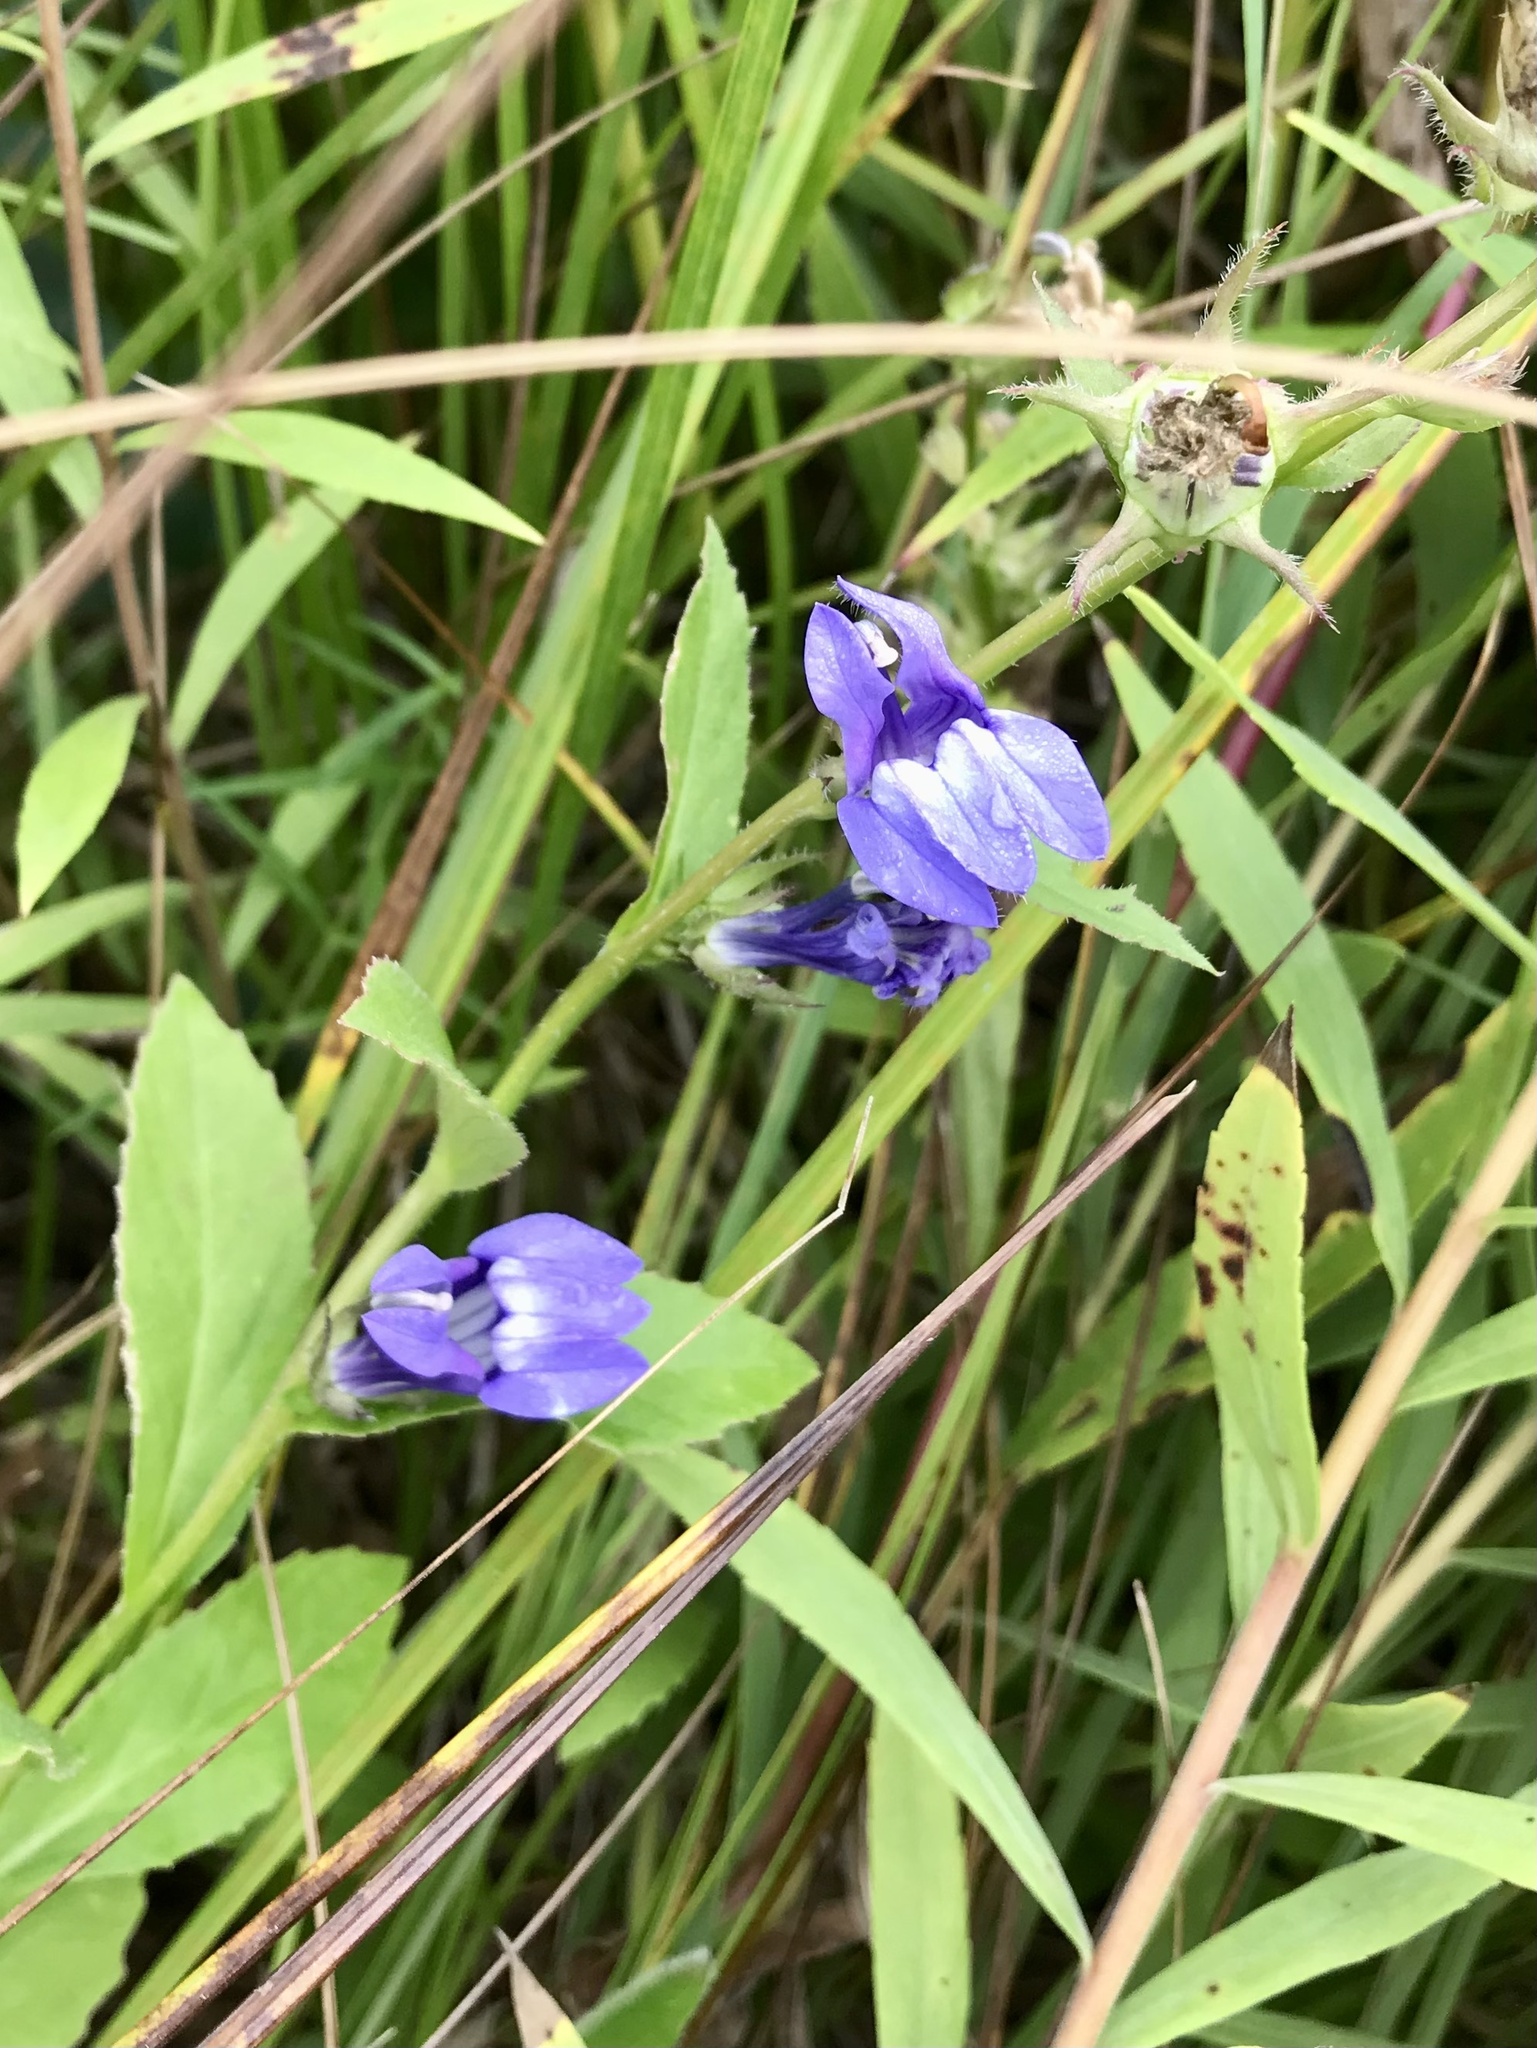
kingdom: Plantae
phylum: Tracheophyta
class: Magnoliopsida
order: Asterales
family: Campanulaceae
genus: Lobelia
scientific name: Lobelia siphilitica
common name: Great lobelia
